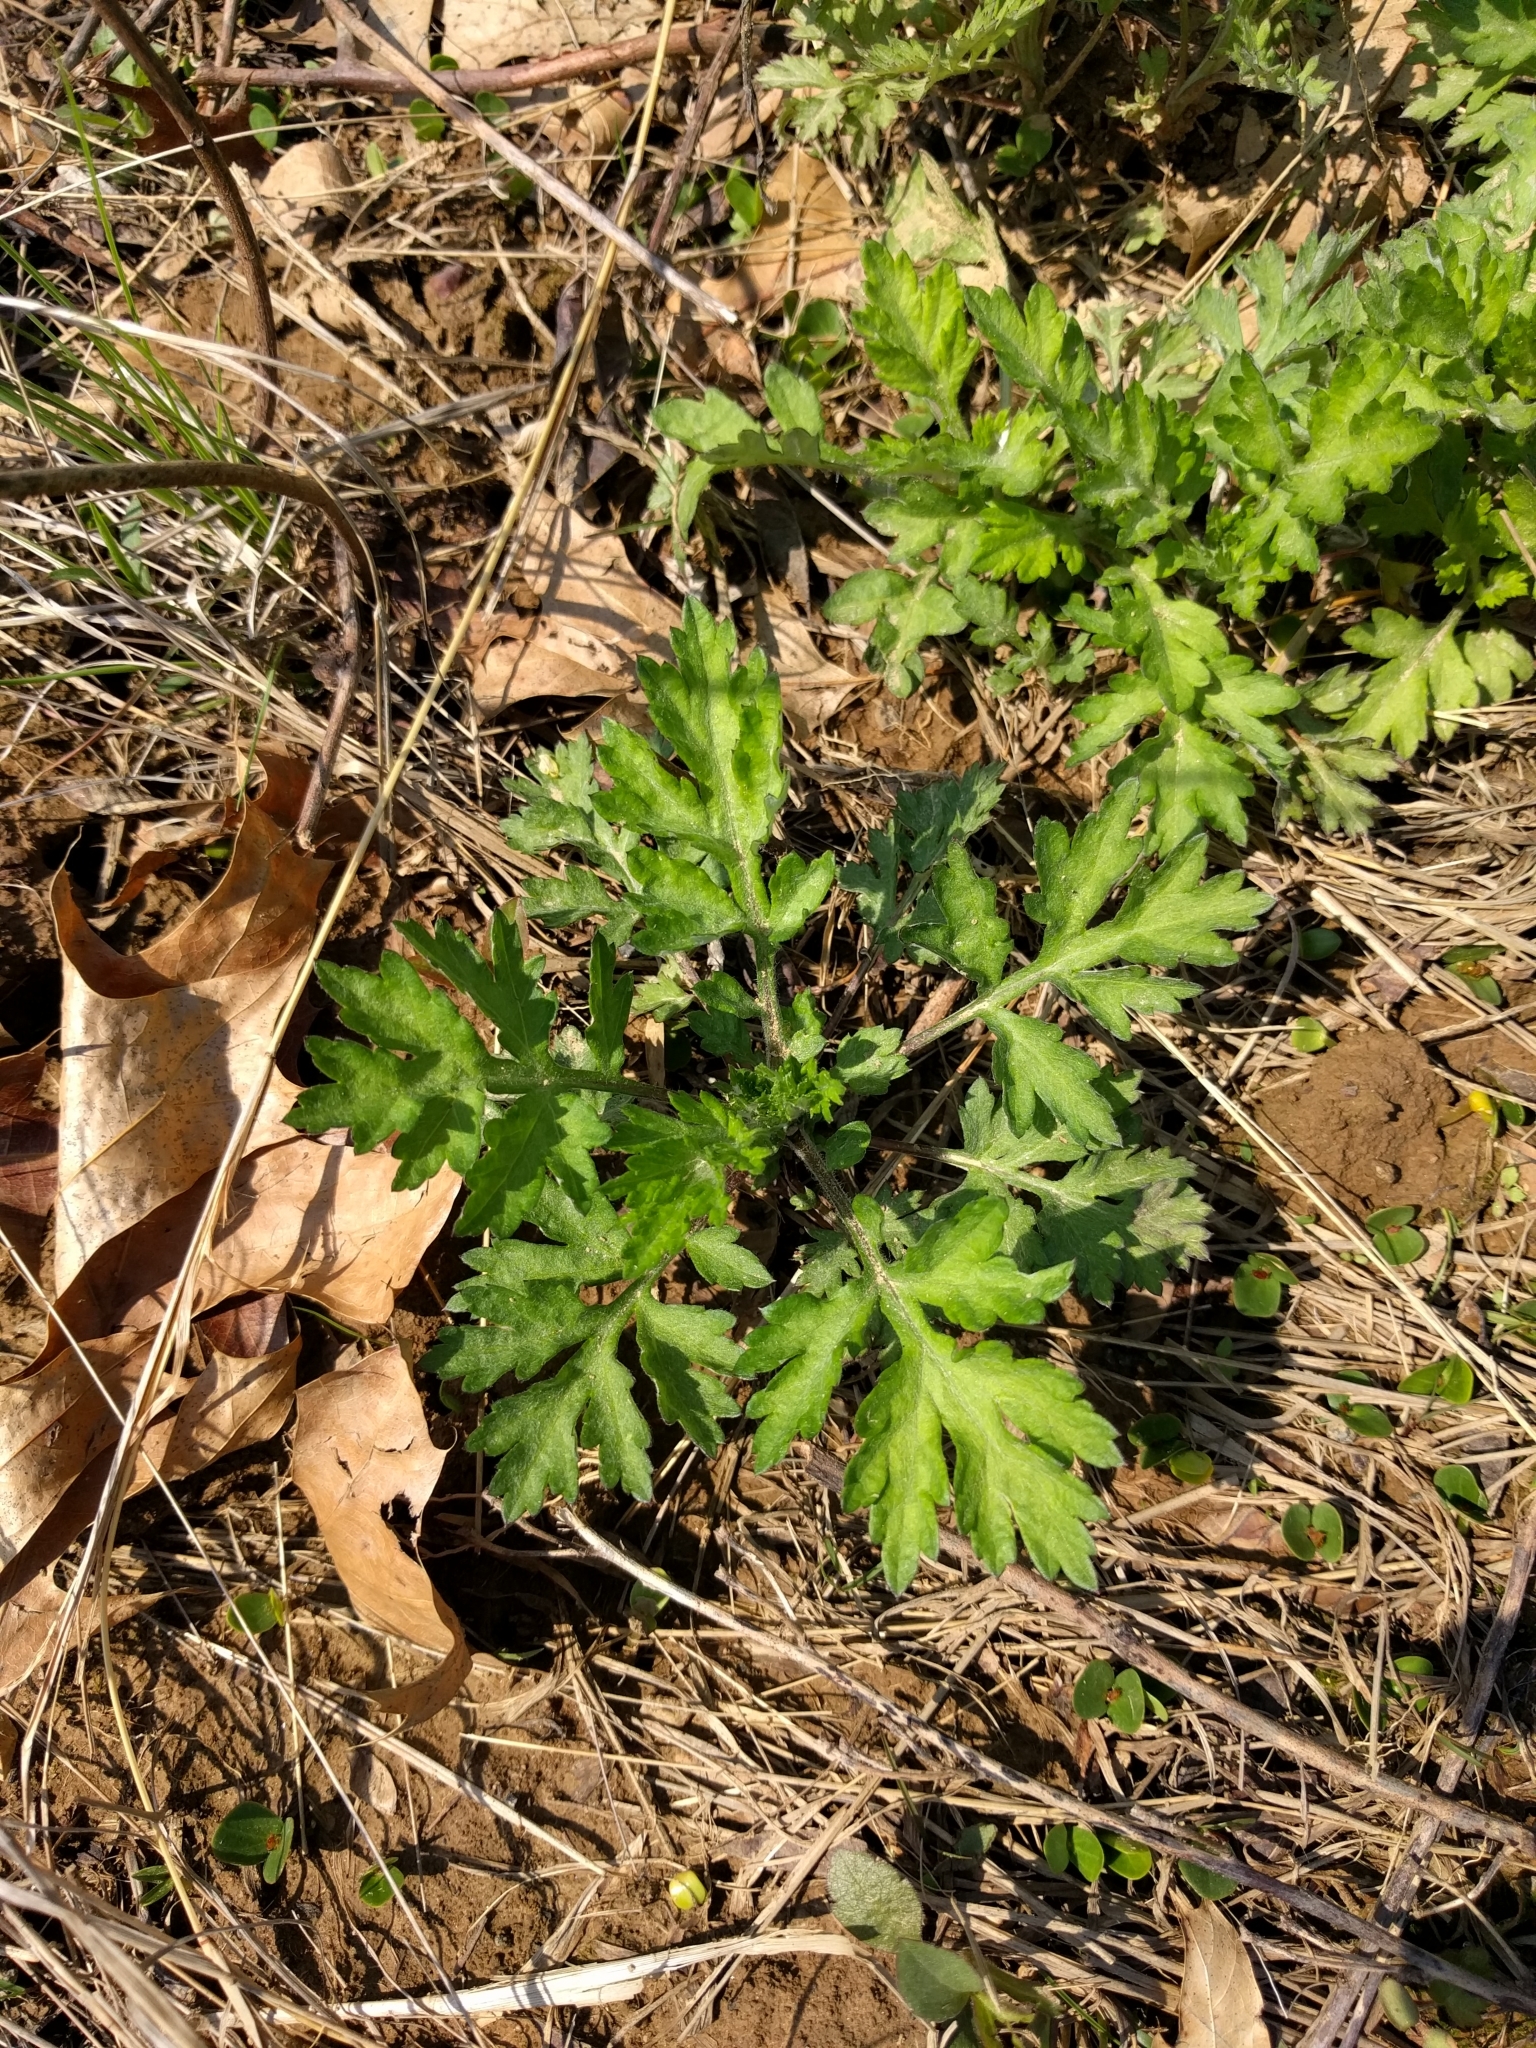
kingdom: Plantae
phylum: Tracheophyta
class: Magnoliopsida
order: Asterales
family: Asteraceae
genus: Artemisia
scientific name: Artemisia vulgaris
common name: Mugwort
